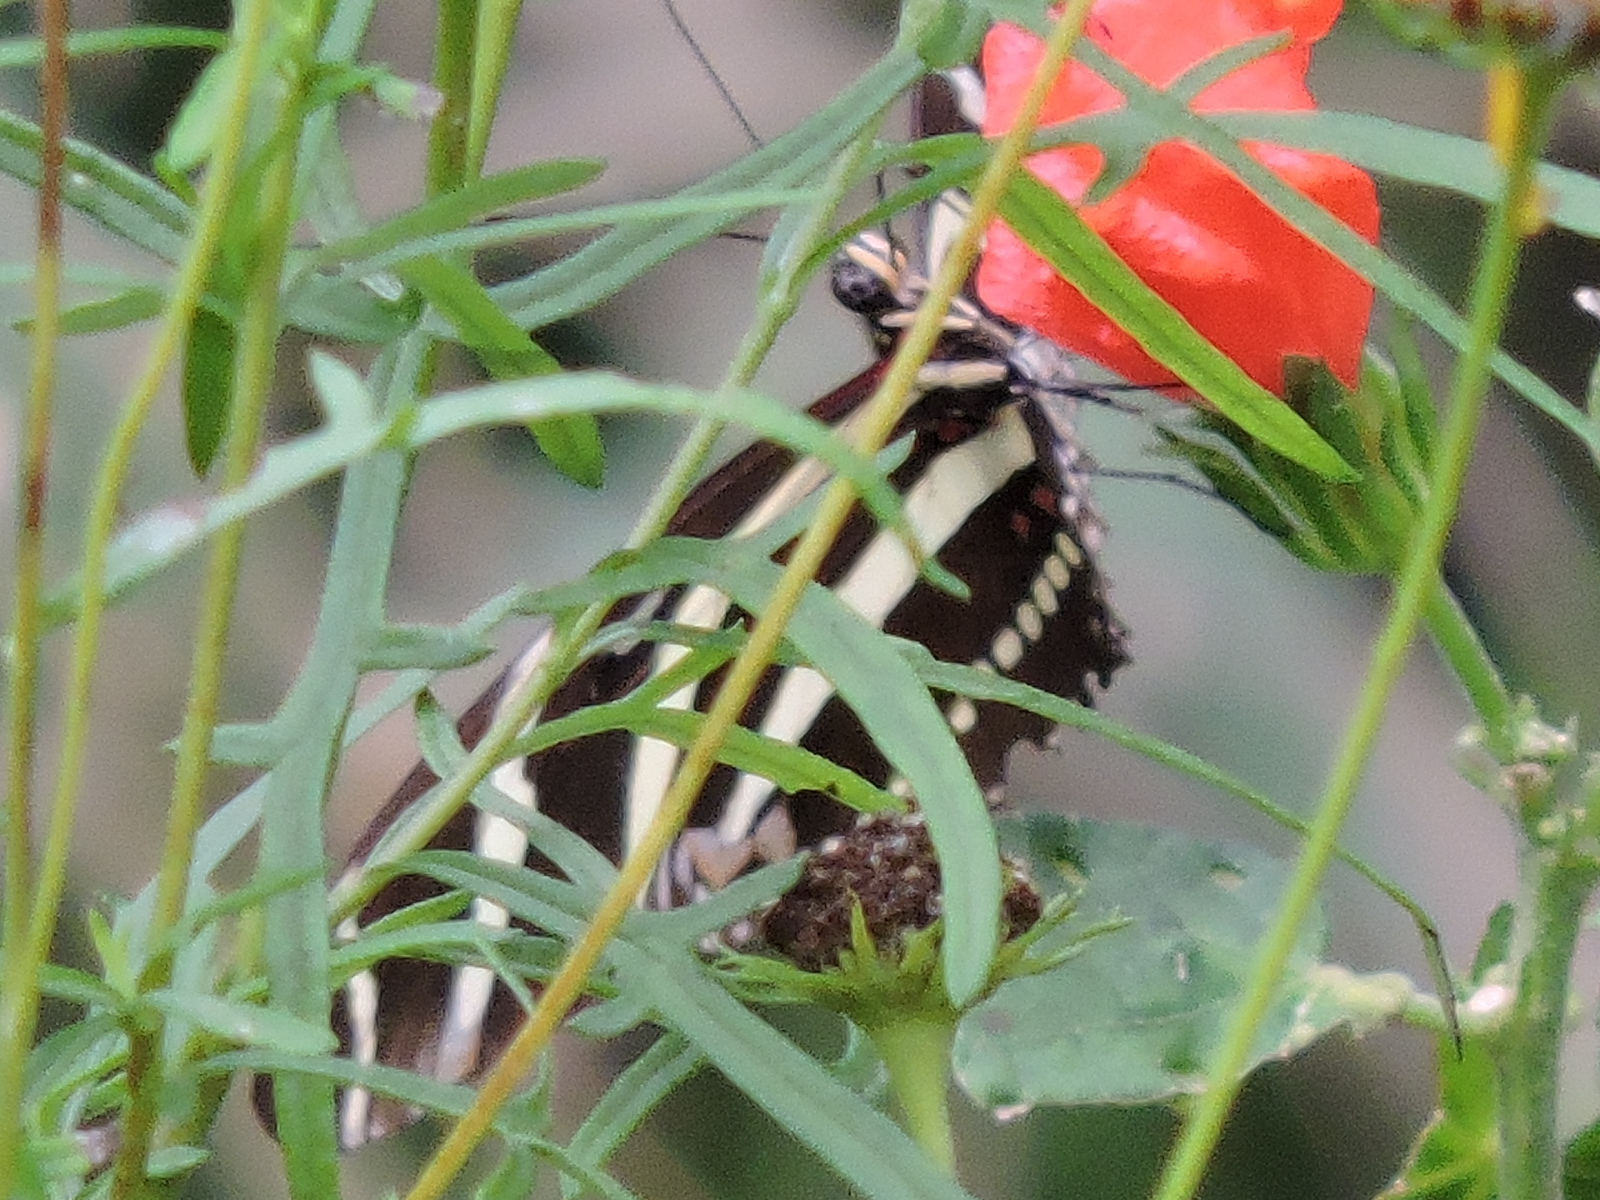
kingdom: Animalia
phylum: Arthropoda
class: Insecta
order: Lepidoptera
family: Nymphalidae
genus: Heliconius
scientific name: Heliconius charithonia
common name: Zebra long wing
